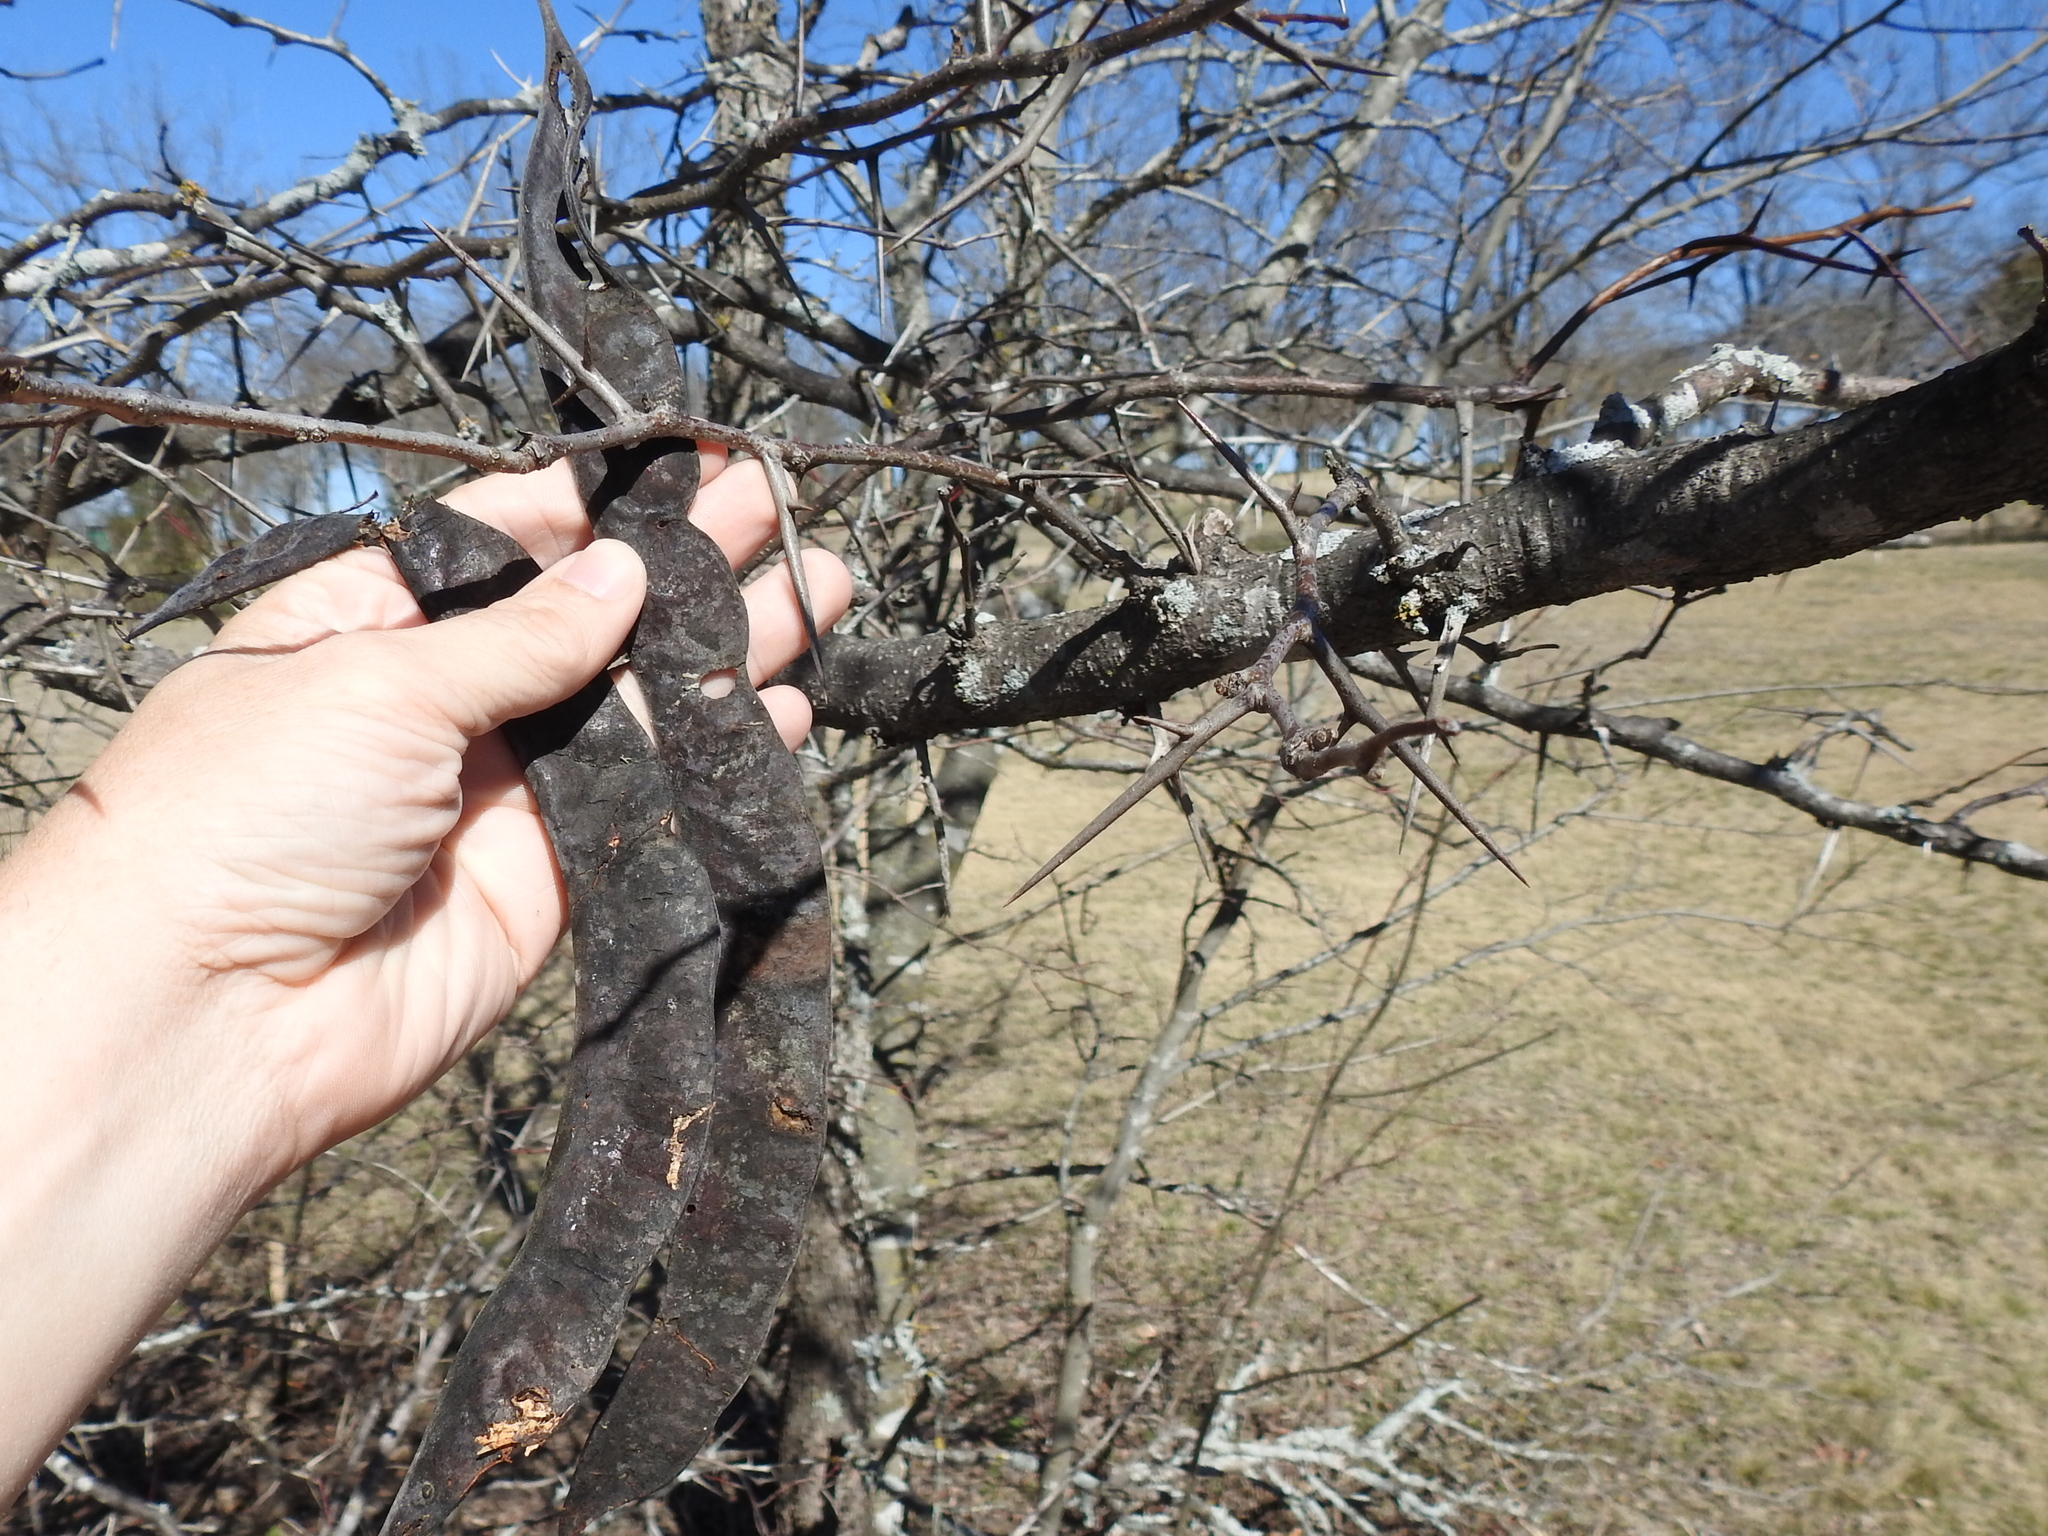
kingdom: Plantae
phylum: Tracheophyta
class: Magnoliopsida
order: Fabales
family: Fabaceae
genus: Gleditsia
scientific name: Gleditsia triacanthos
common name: Common honeylocust
